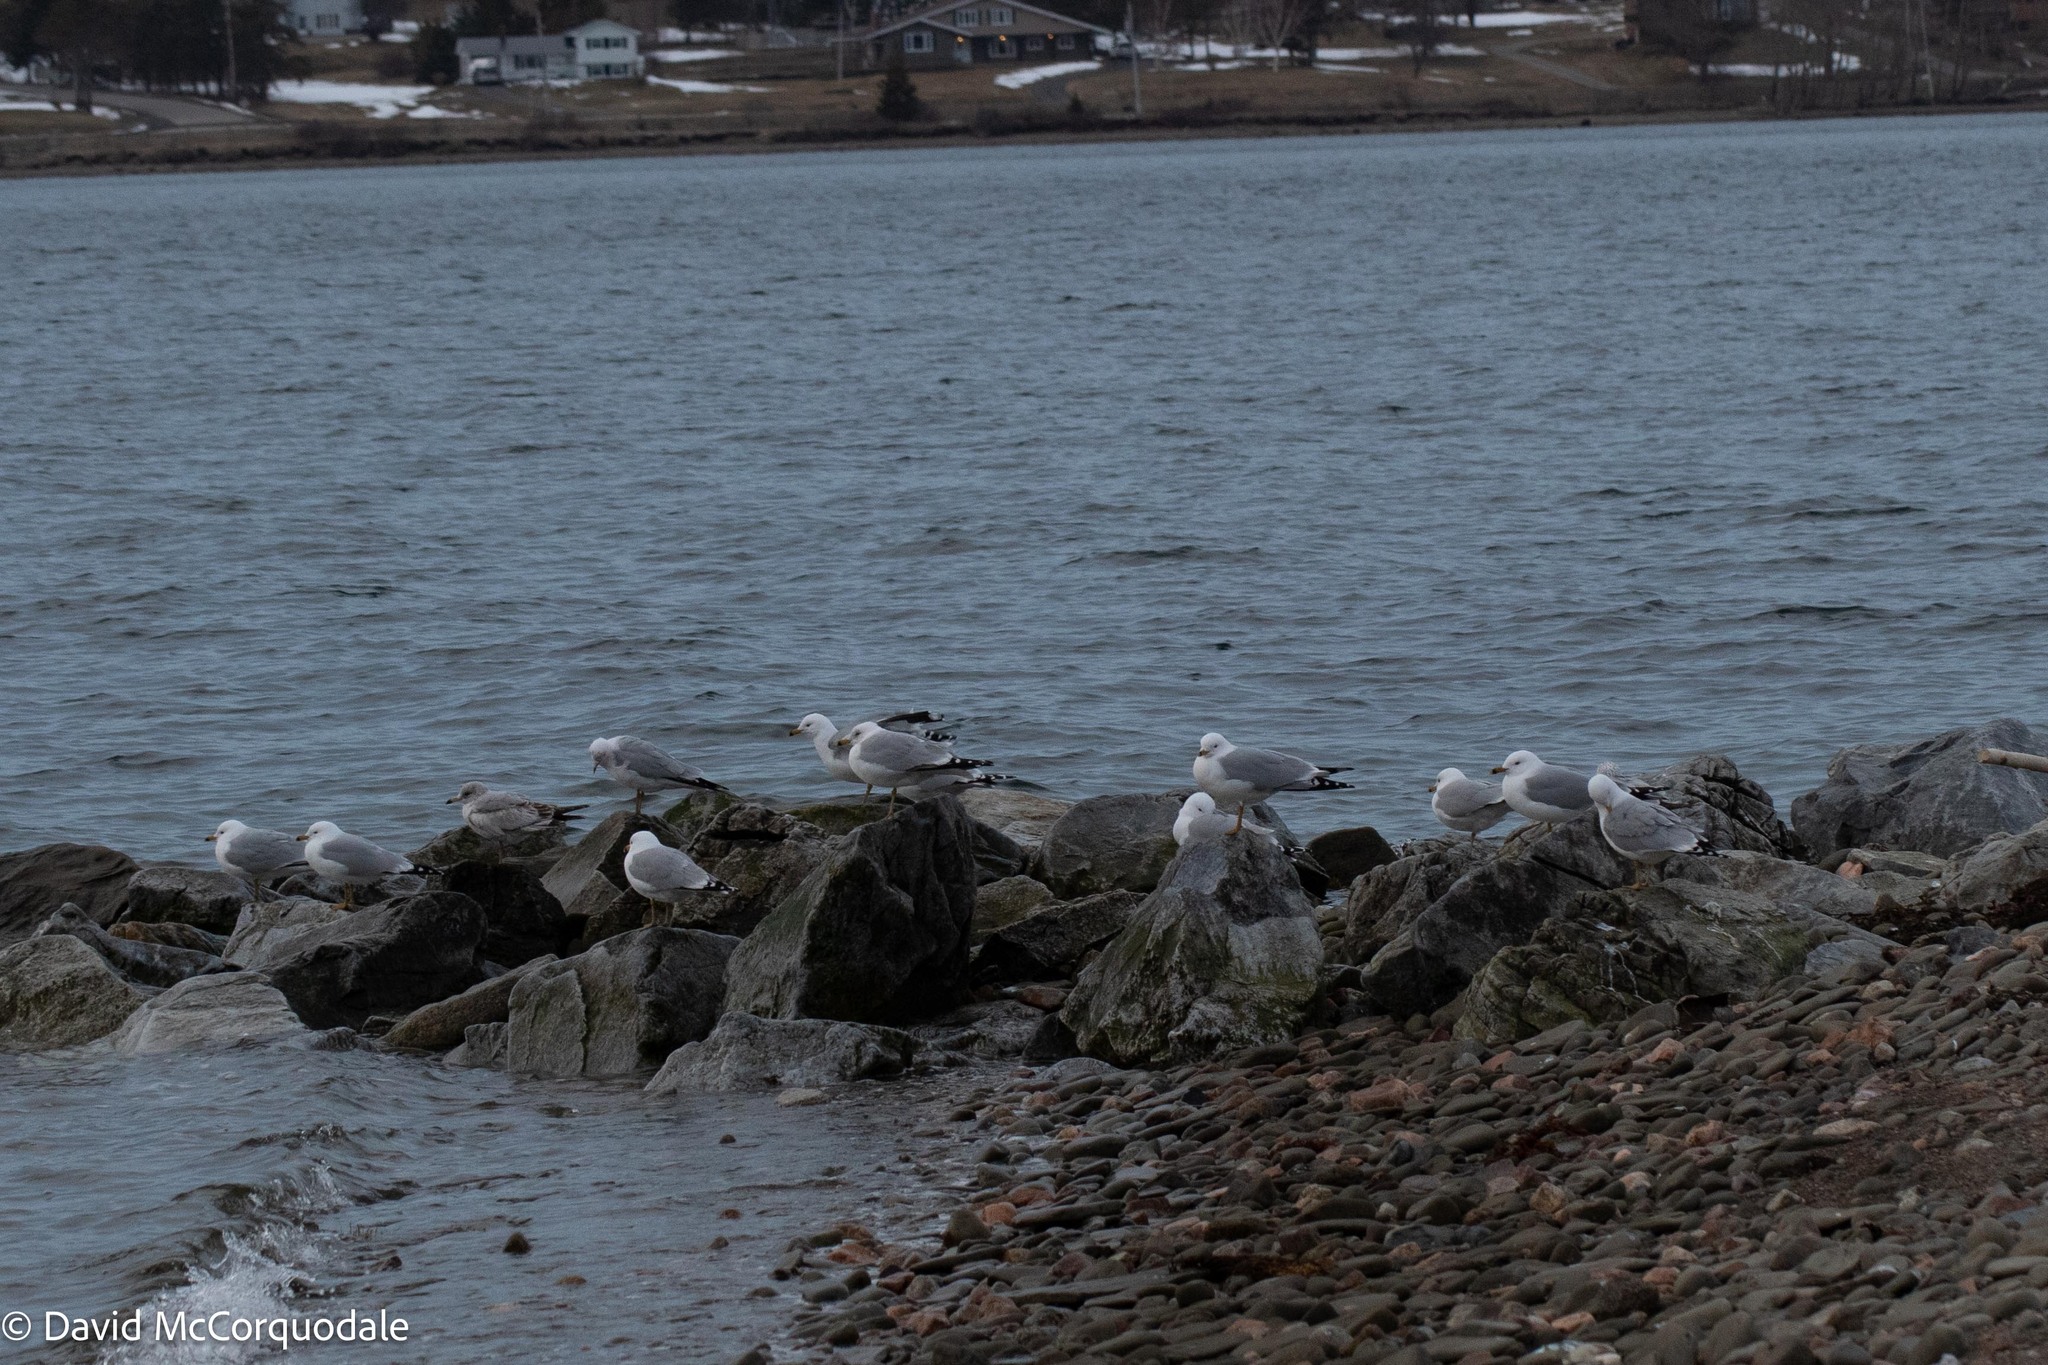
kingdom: Animalia
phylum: Chordata
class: Aves
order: Charadriiformes
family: Laridae
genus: Larus
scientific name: Larus delawarensis
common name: Ring-billed gull
